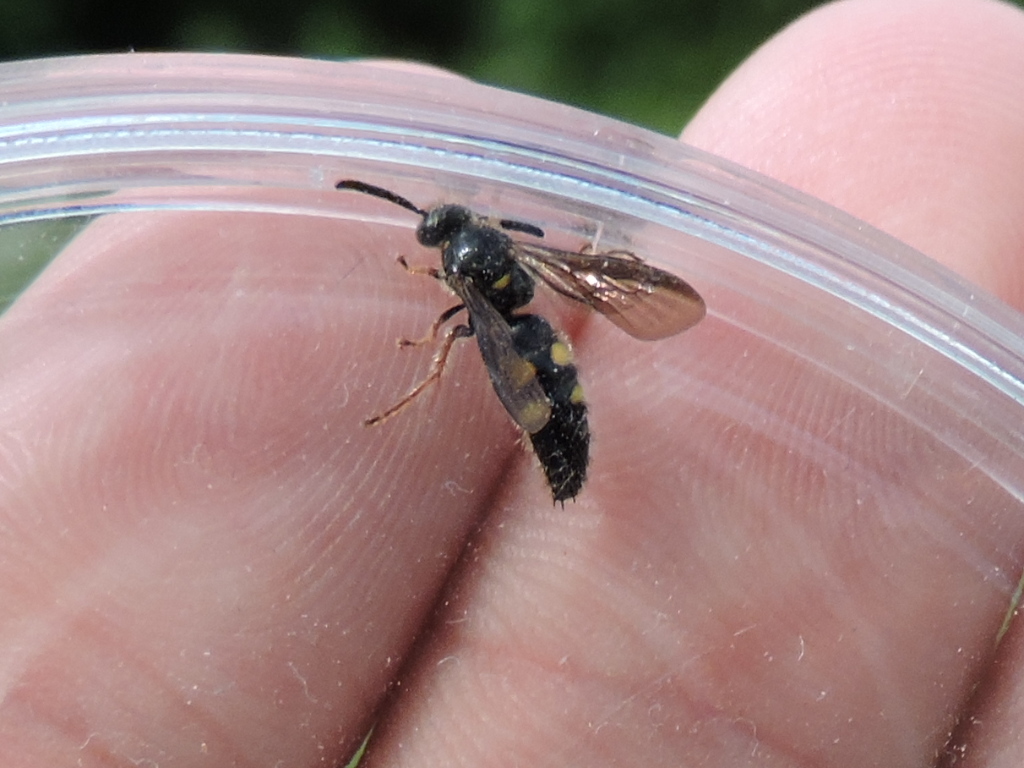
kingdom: Animalia
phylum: Arthropoda
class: Insecta
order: Hymenoptera
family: Scoliidae
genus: Scolia
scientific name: Scolia nobilitata
